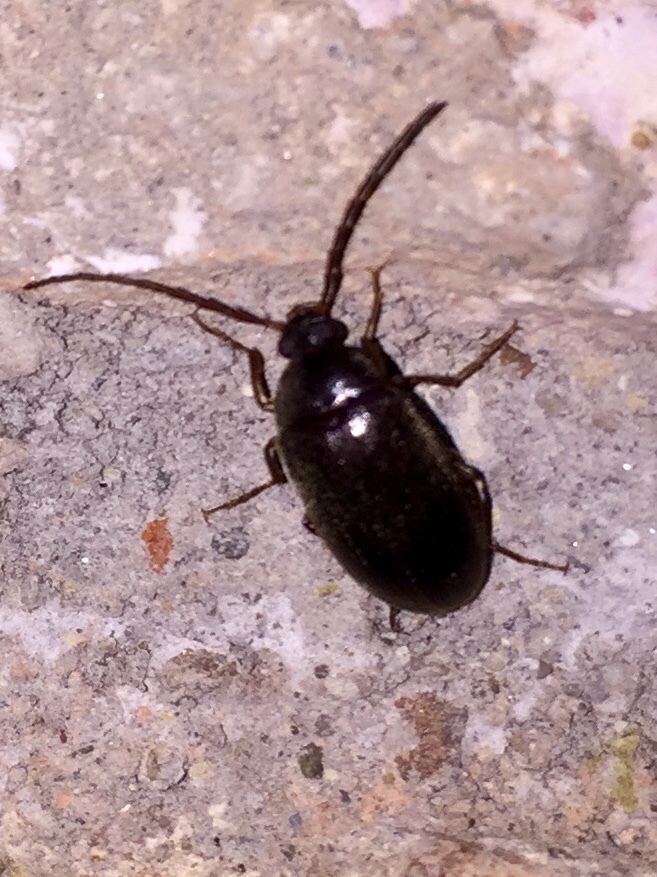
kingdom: Animalia
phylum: Arthropoda
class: Insecta
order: Coleoptera
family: Tenebrionidae
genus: Allecula
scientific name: Allecula morio
